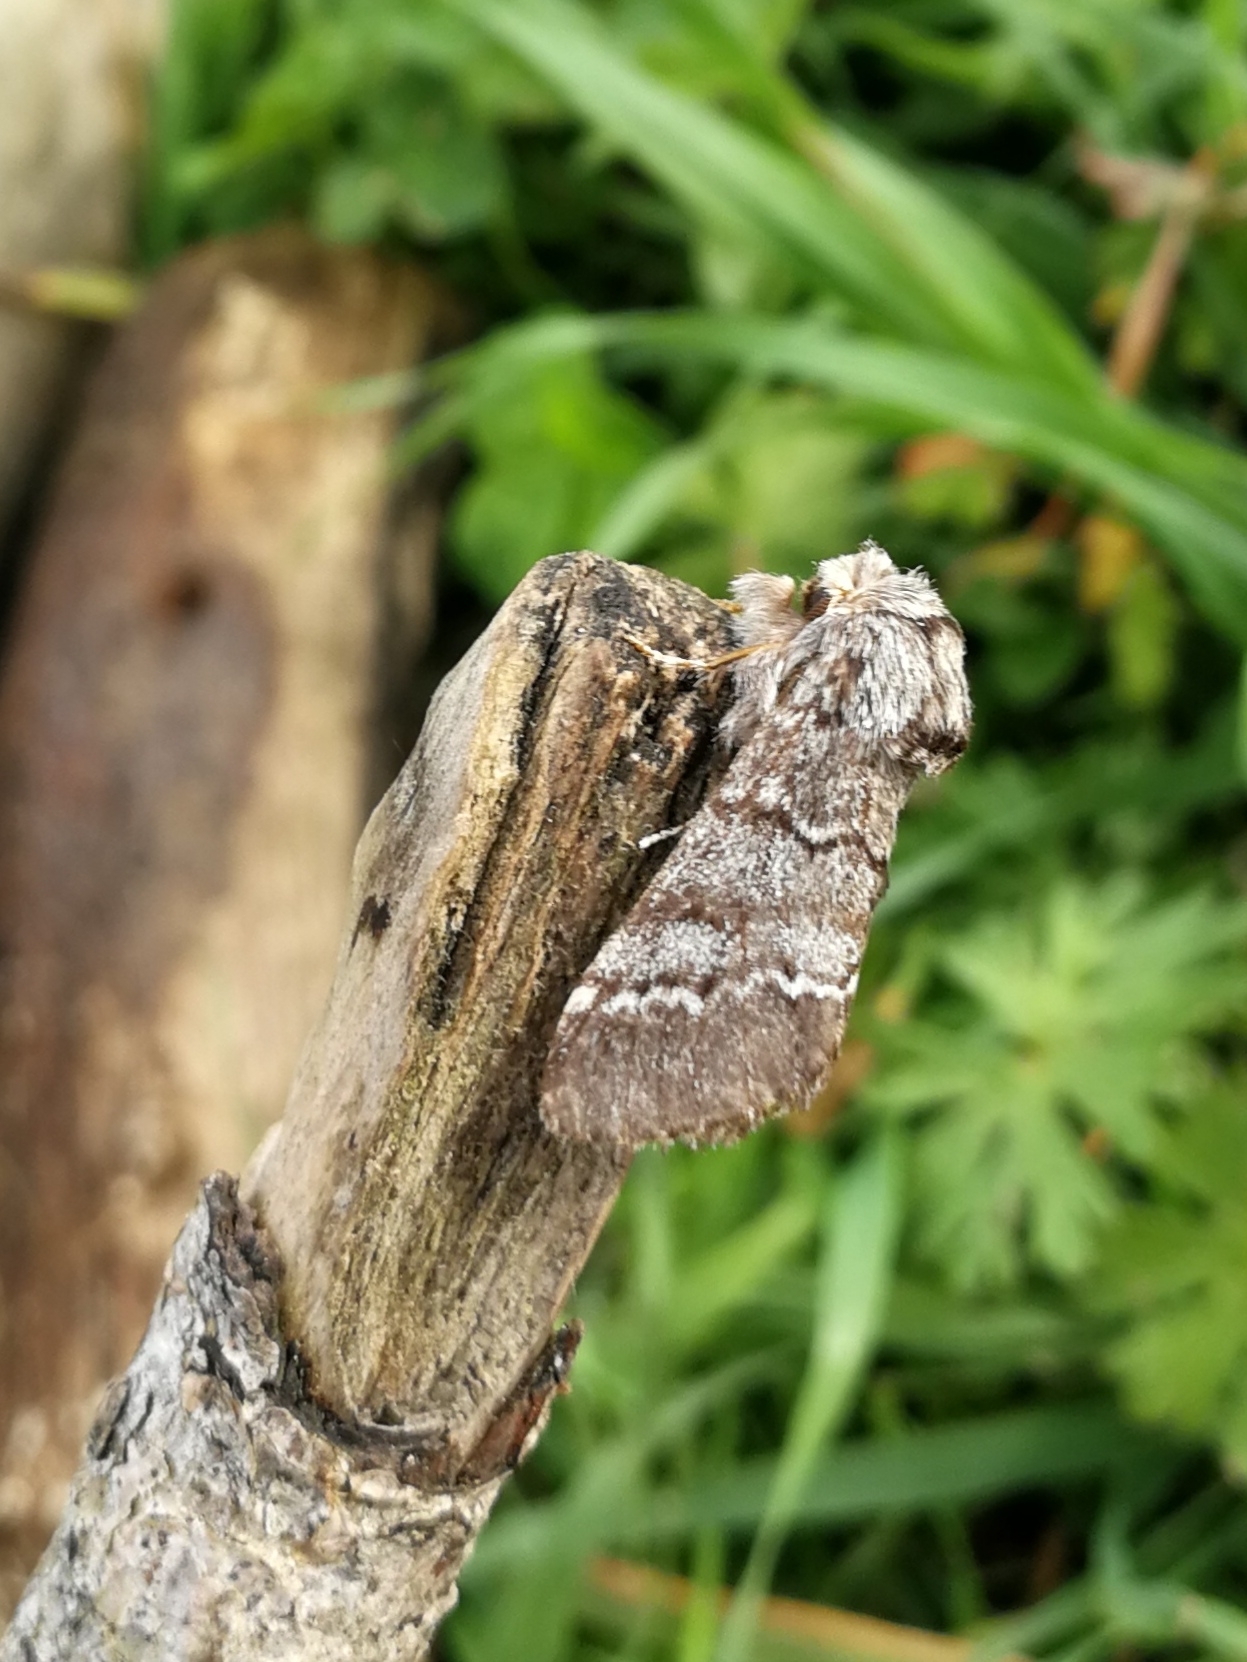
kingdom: Animalia
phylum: Arthropoda
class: Insecta
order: Lepidoptera
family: Notodontidae
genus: Drymonia
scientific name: Drymonia ruficornis
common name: Lunar marbled brown
